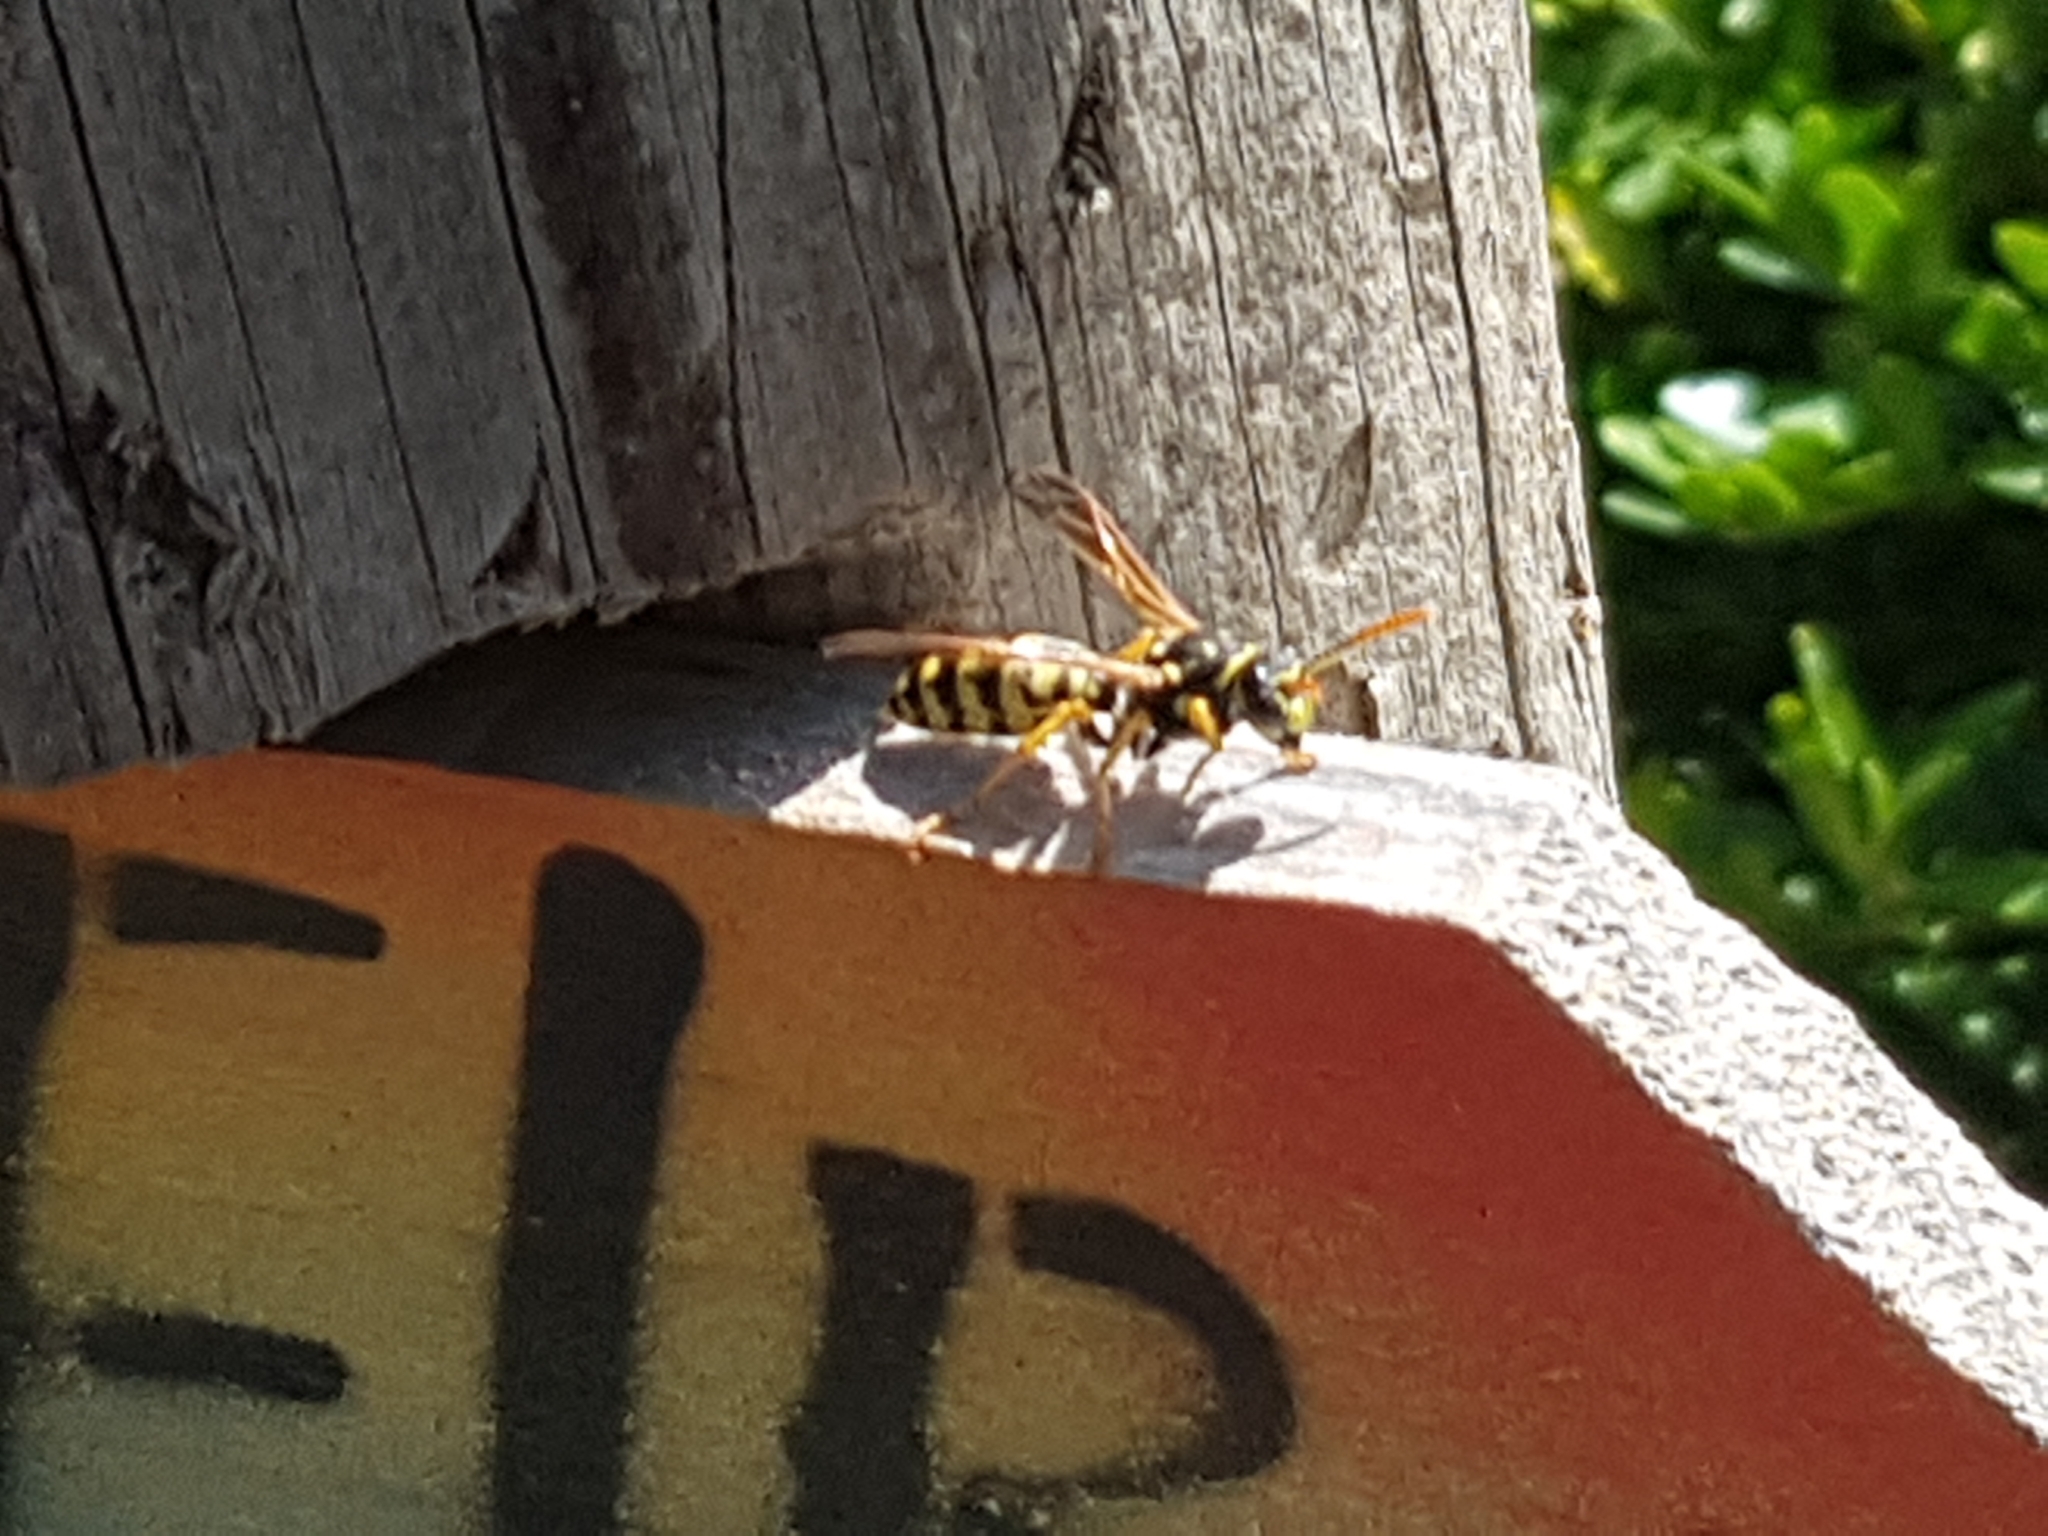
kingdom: Animalia
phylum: Arthropoda
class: Insecta
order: Hymenoptera
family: Eumenidae
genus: Polistes
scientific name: Polistes dominula
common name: Paper wasp
